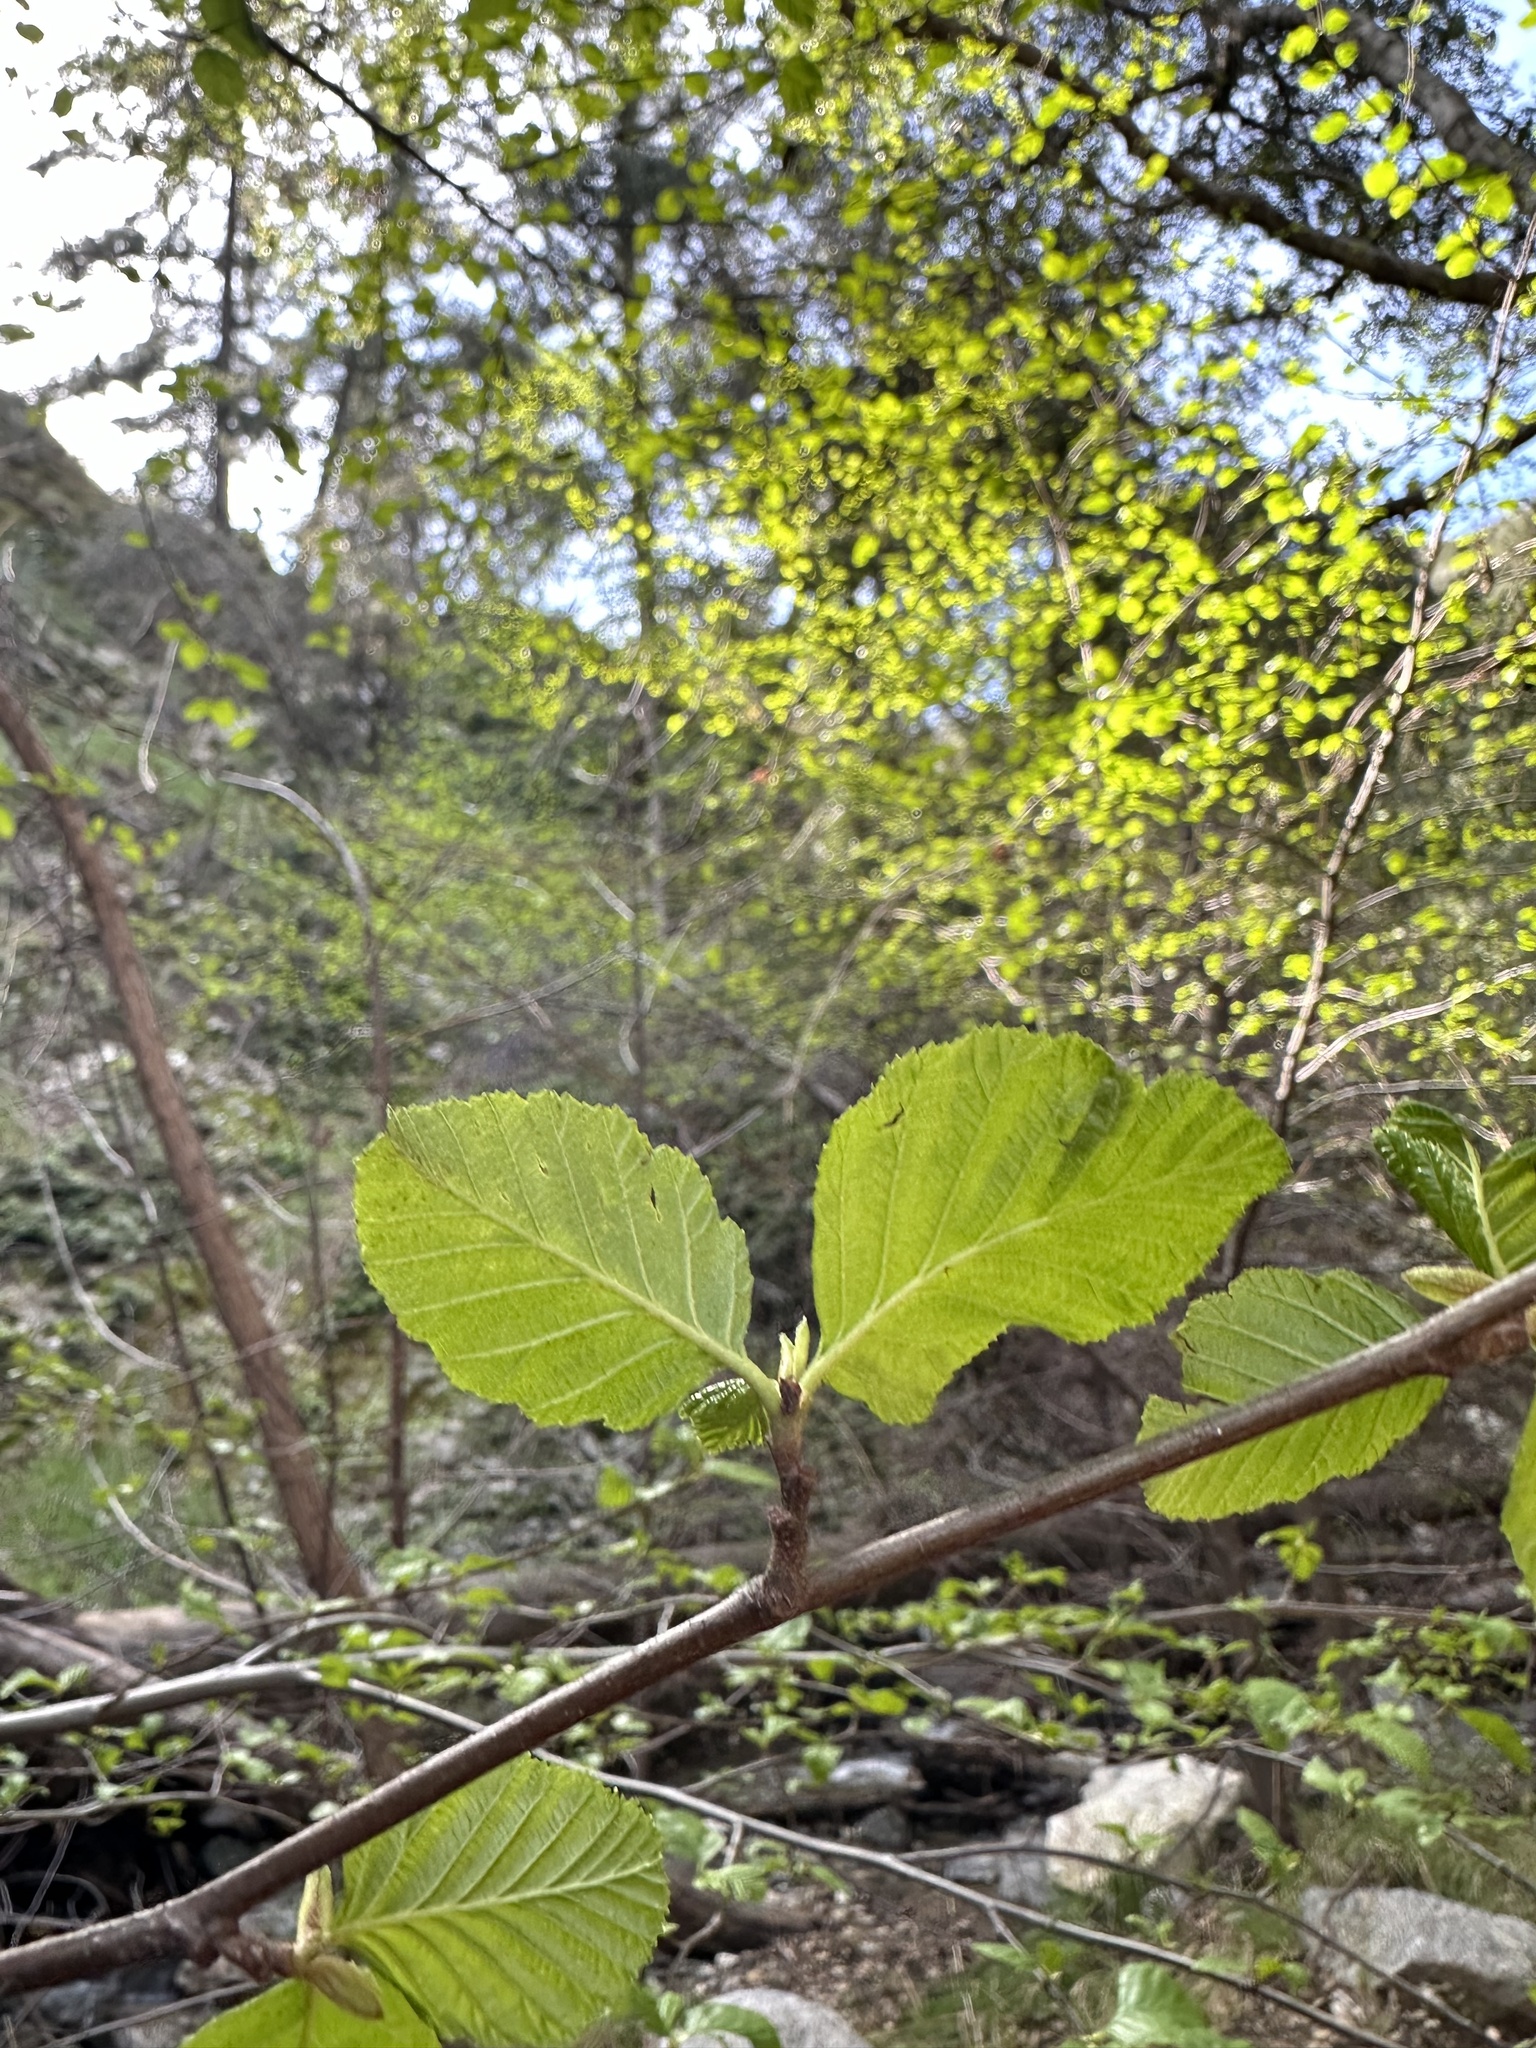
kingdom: Plantae
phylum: Tracheophyta
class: Magnoliopsida
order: Fagales
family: Betulaceae
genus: Alnus
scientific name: Alnus rhombifolia
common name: California alder
